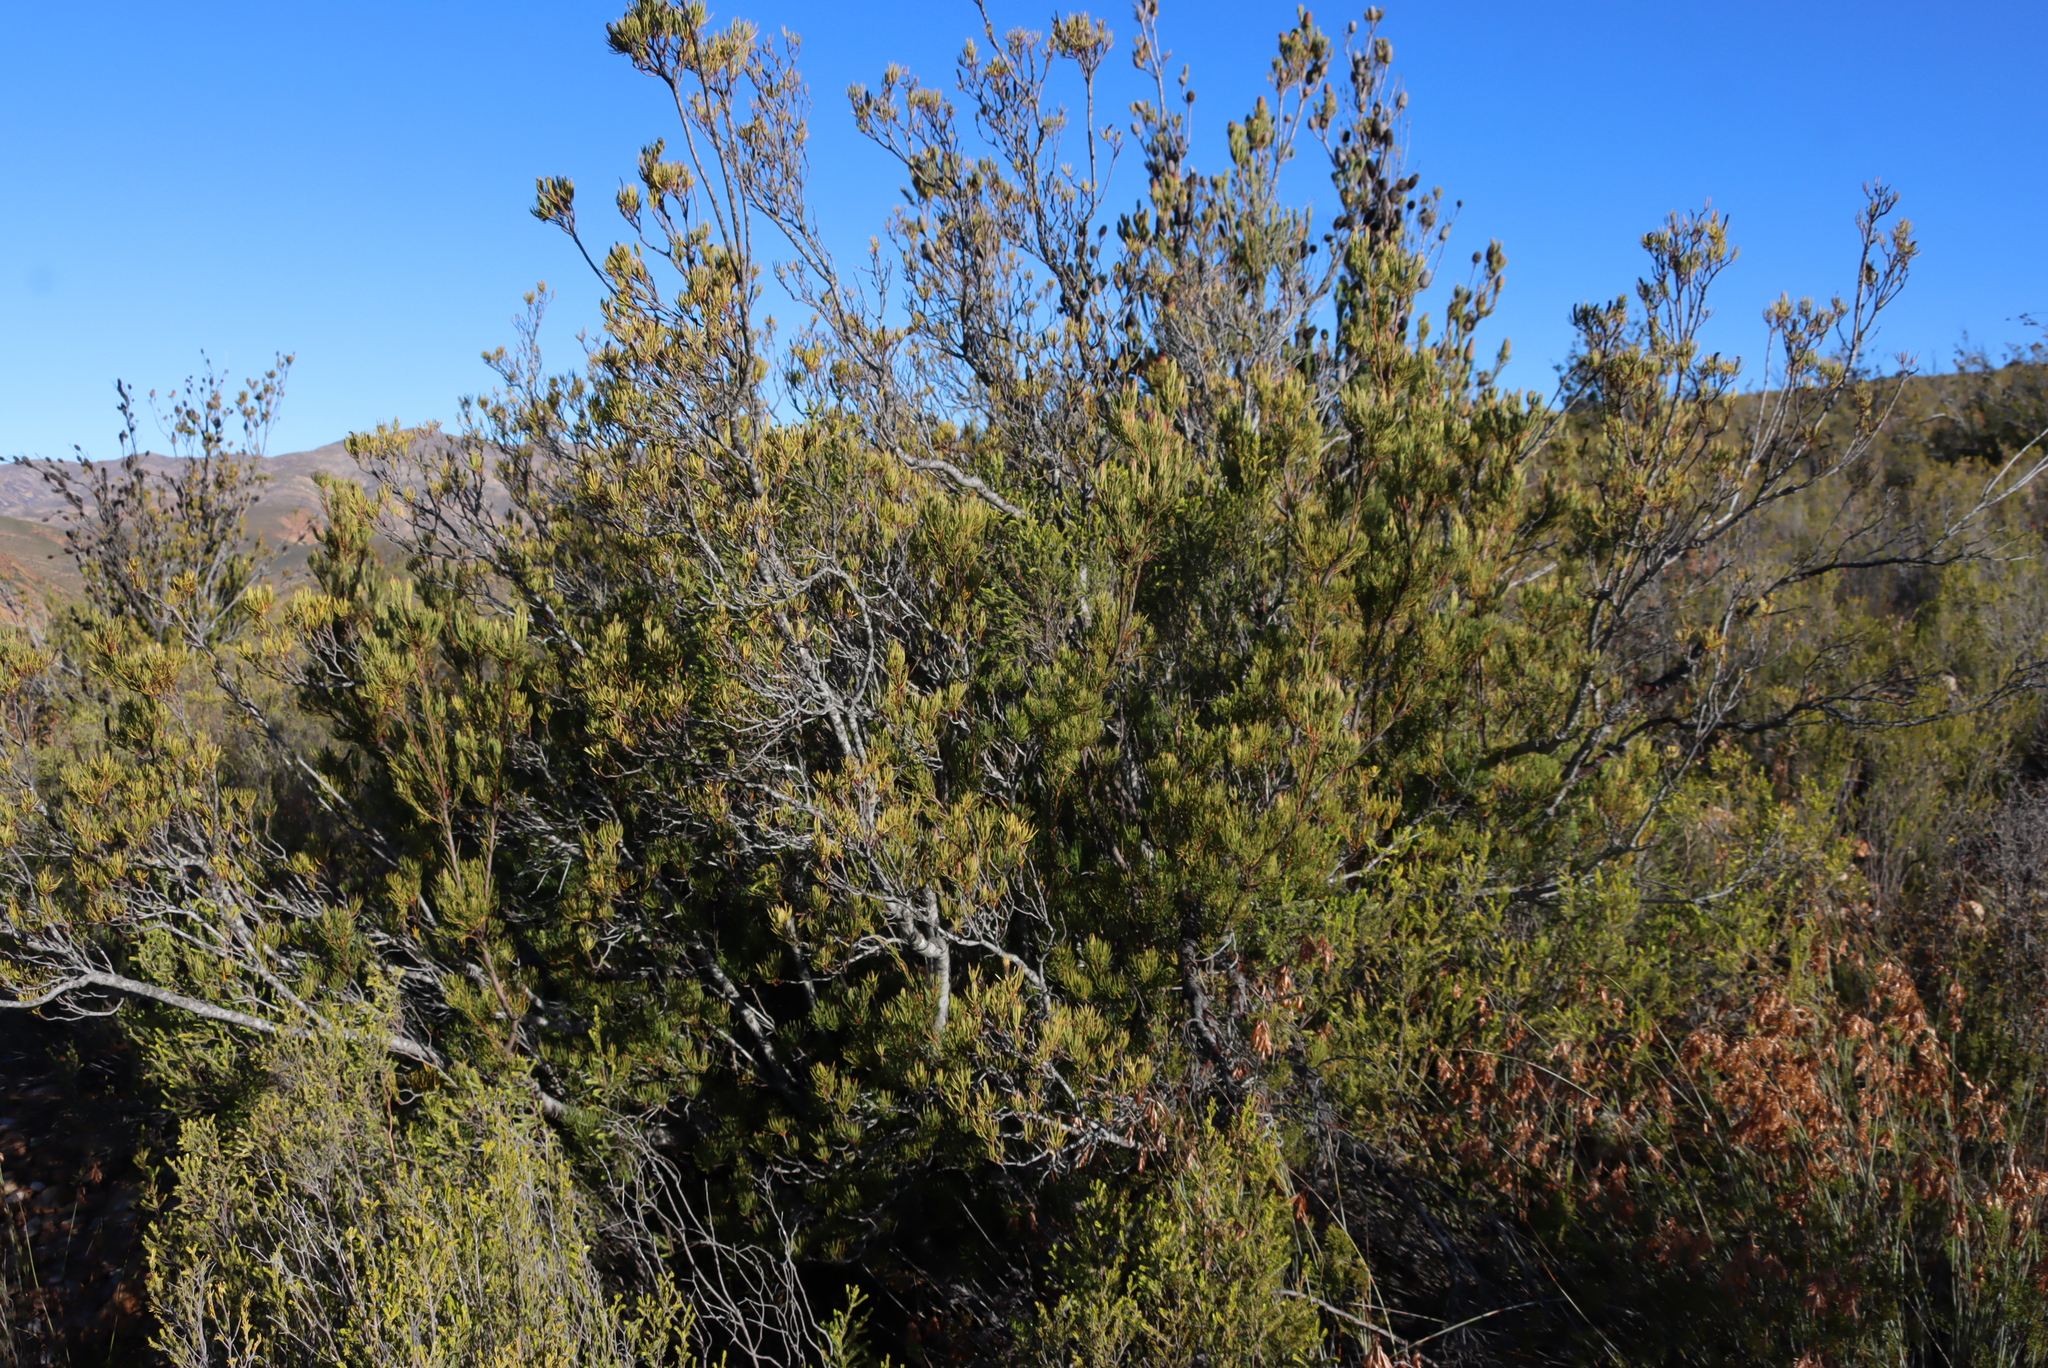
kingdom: Plantae
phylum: Tracheophyta
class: Magnoliopsida
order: Proteales
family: Proteaceae
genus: Leucadendron
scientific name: Leucadendron nobile
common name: Karoo conebush
